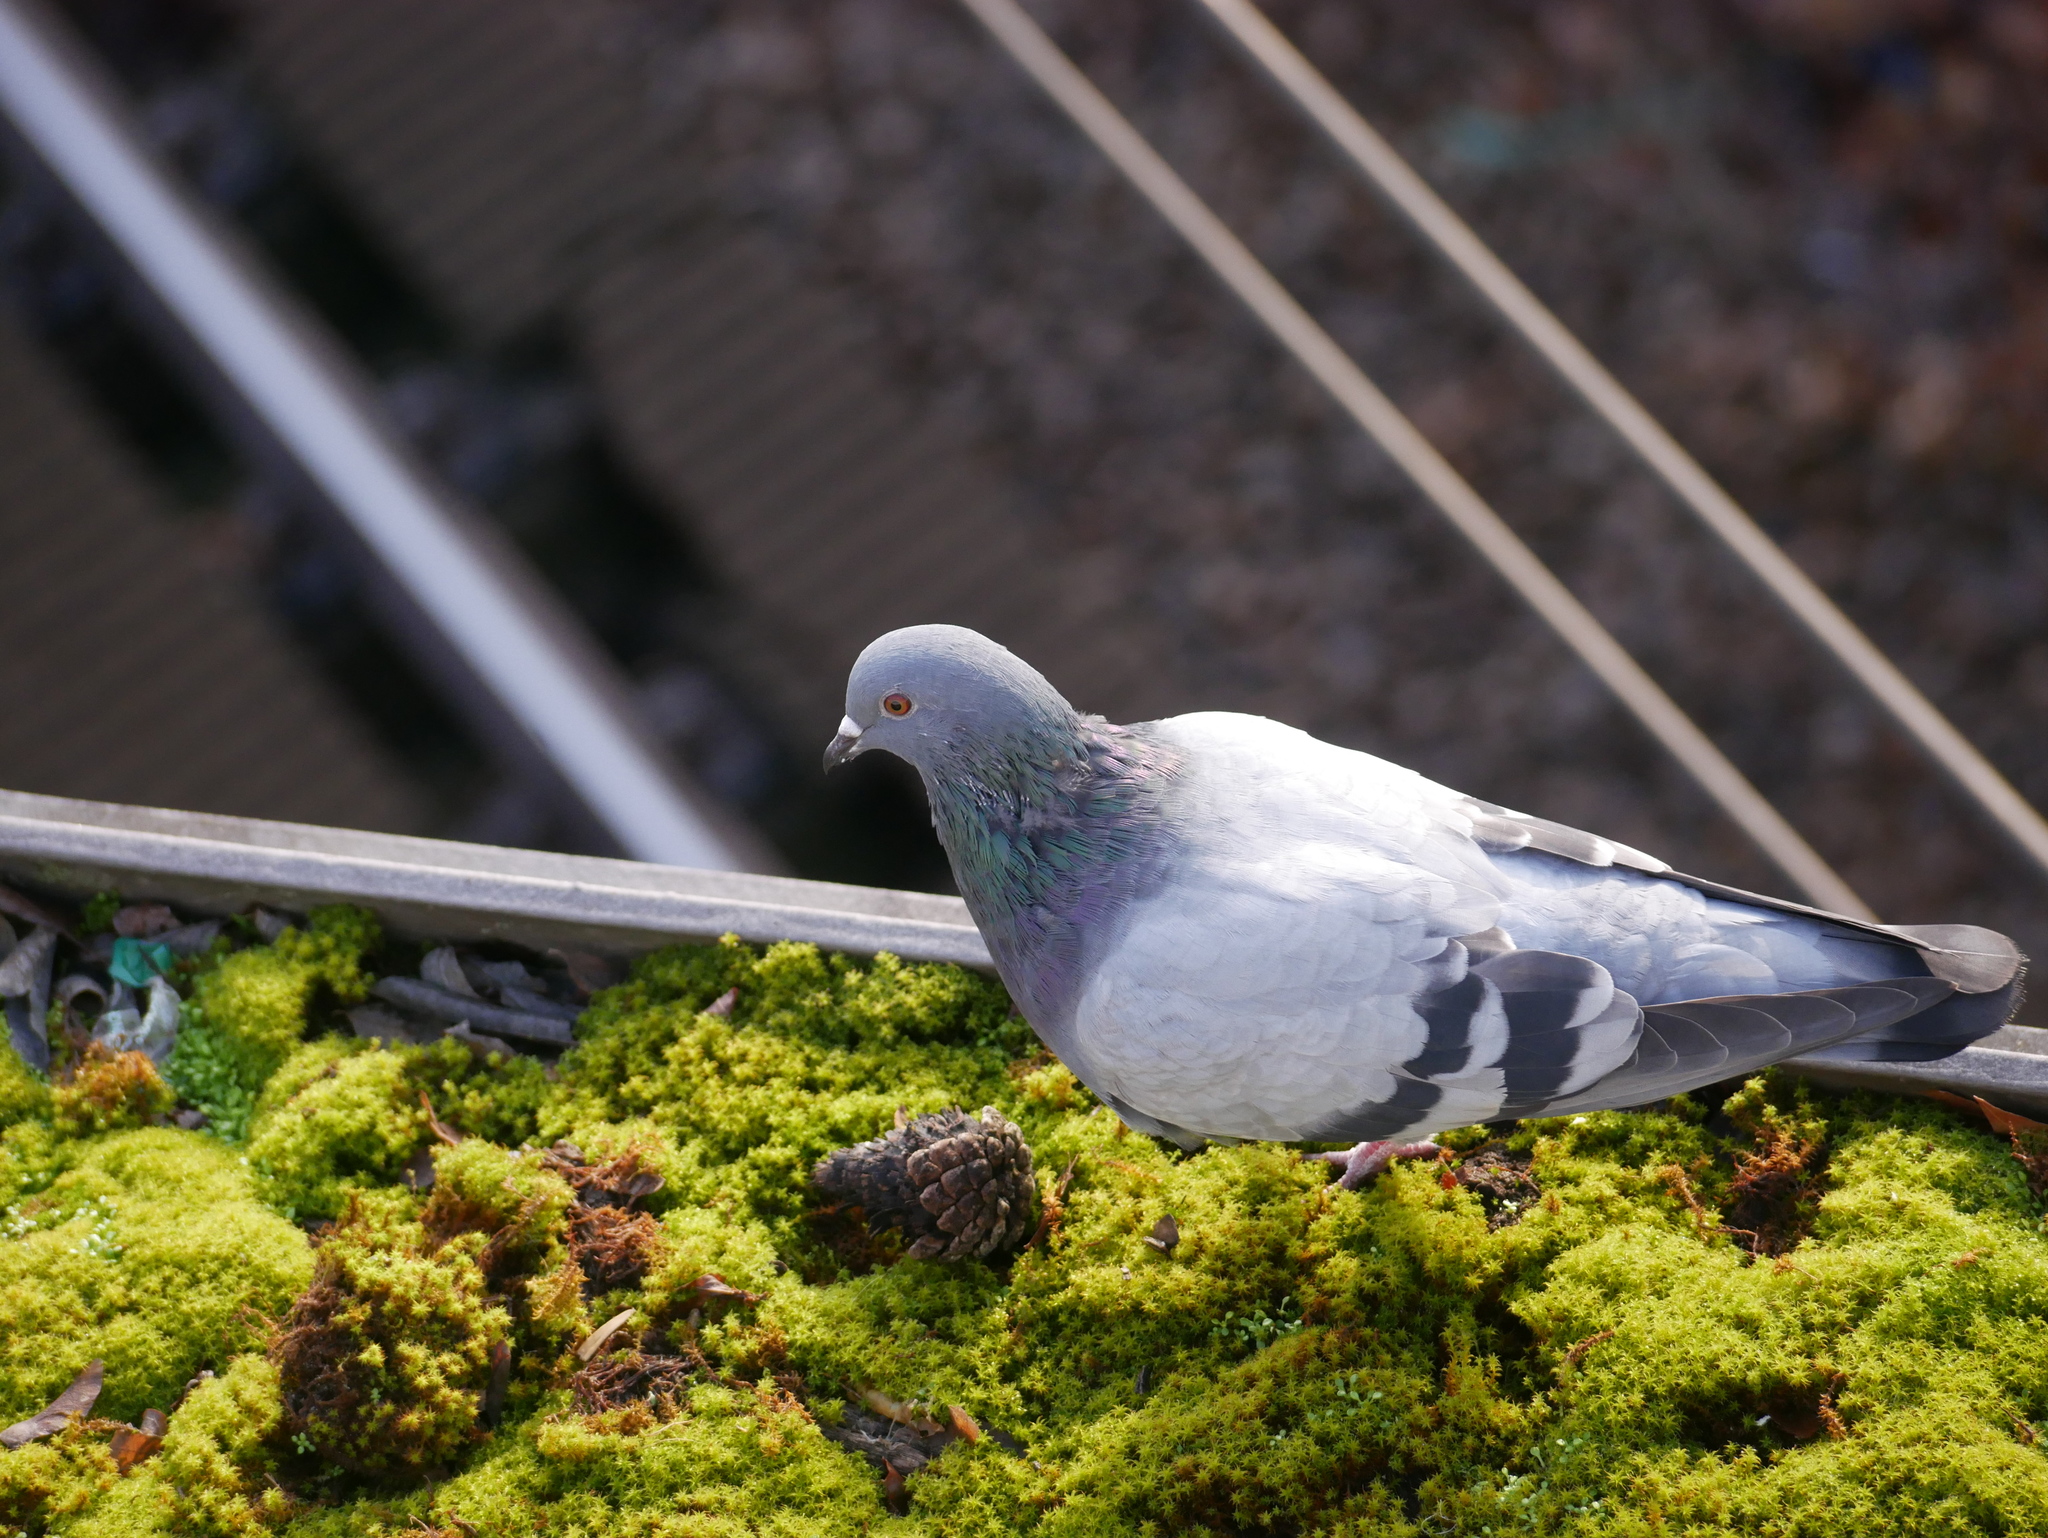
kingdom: Animalia
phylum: Chordata
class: Aves
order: Columbiformes
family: Columbidae
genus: Columba
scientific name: Columba livia
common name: Rock pigeon
